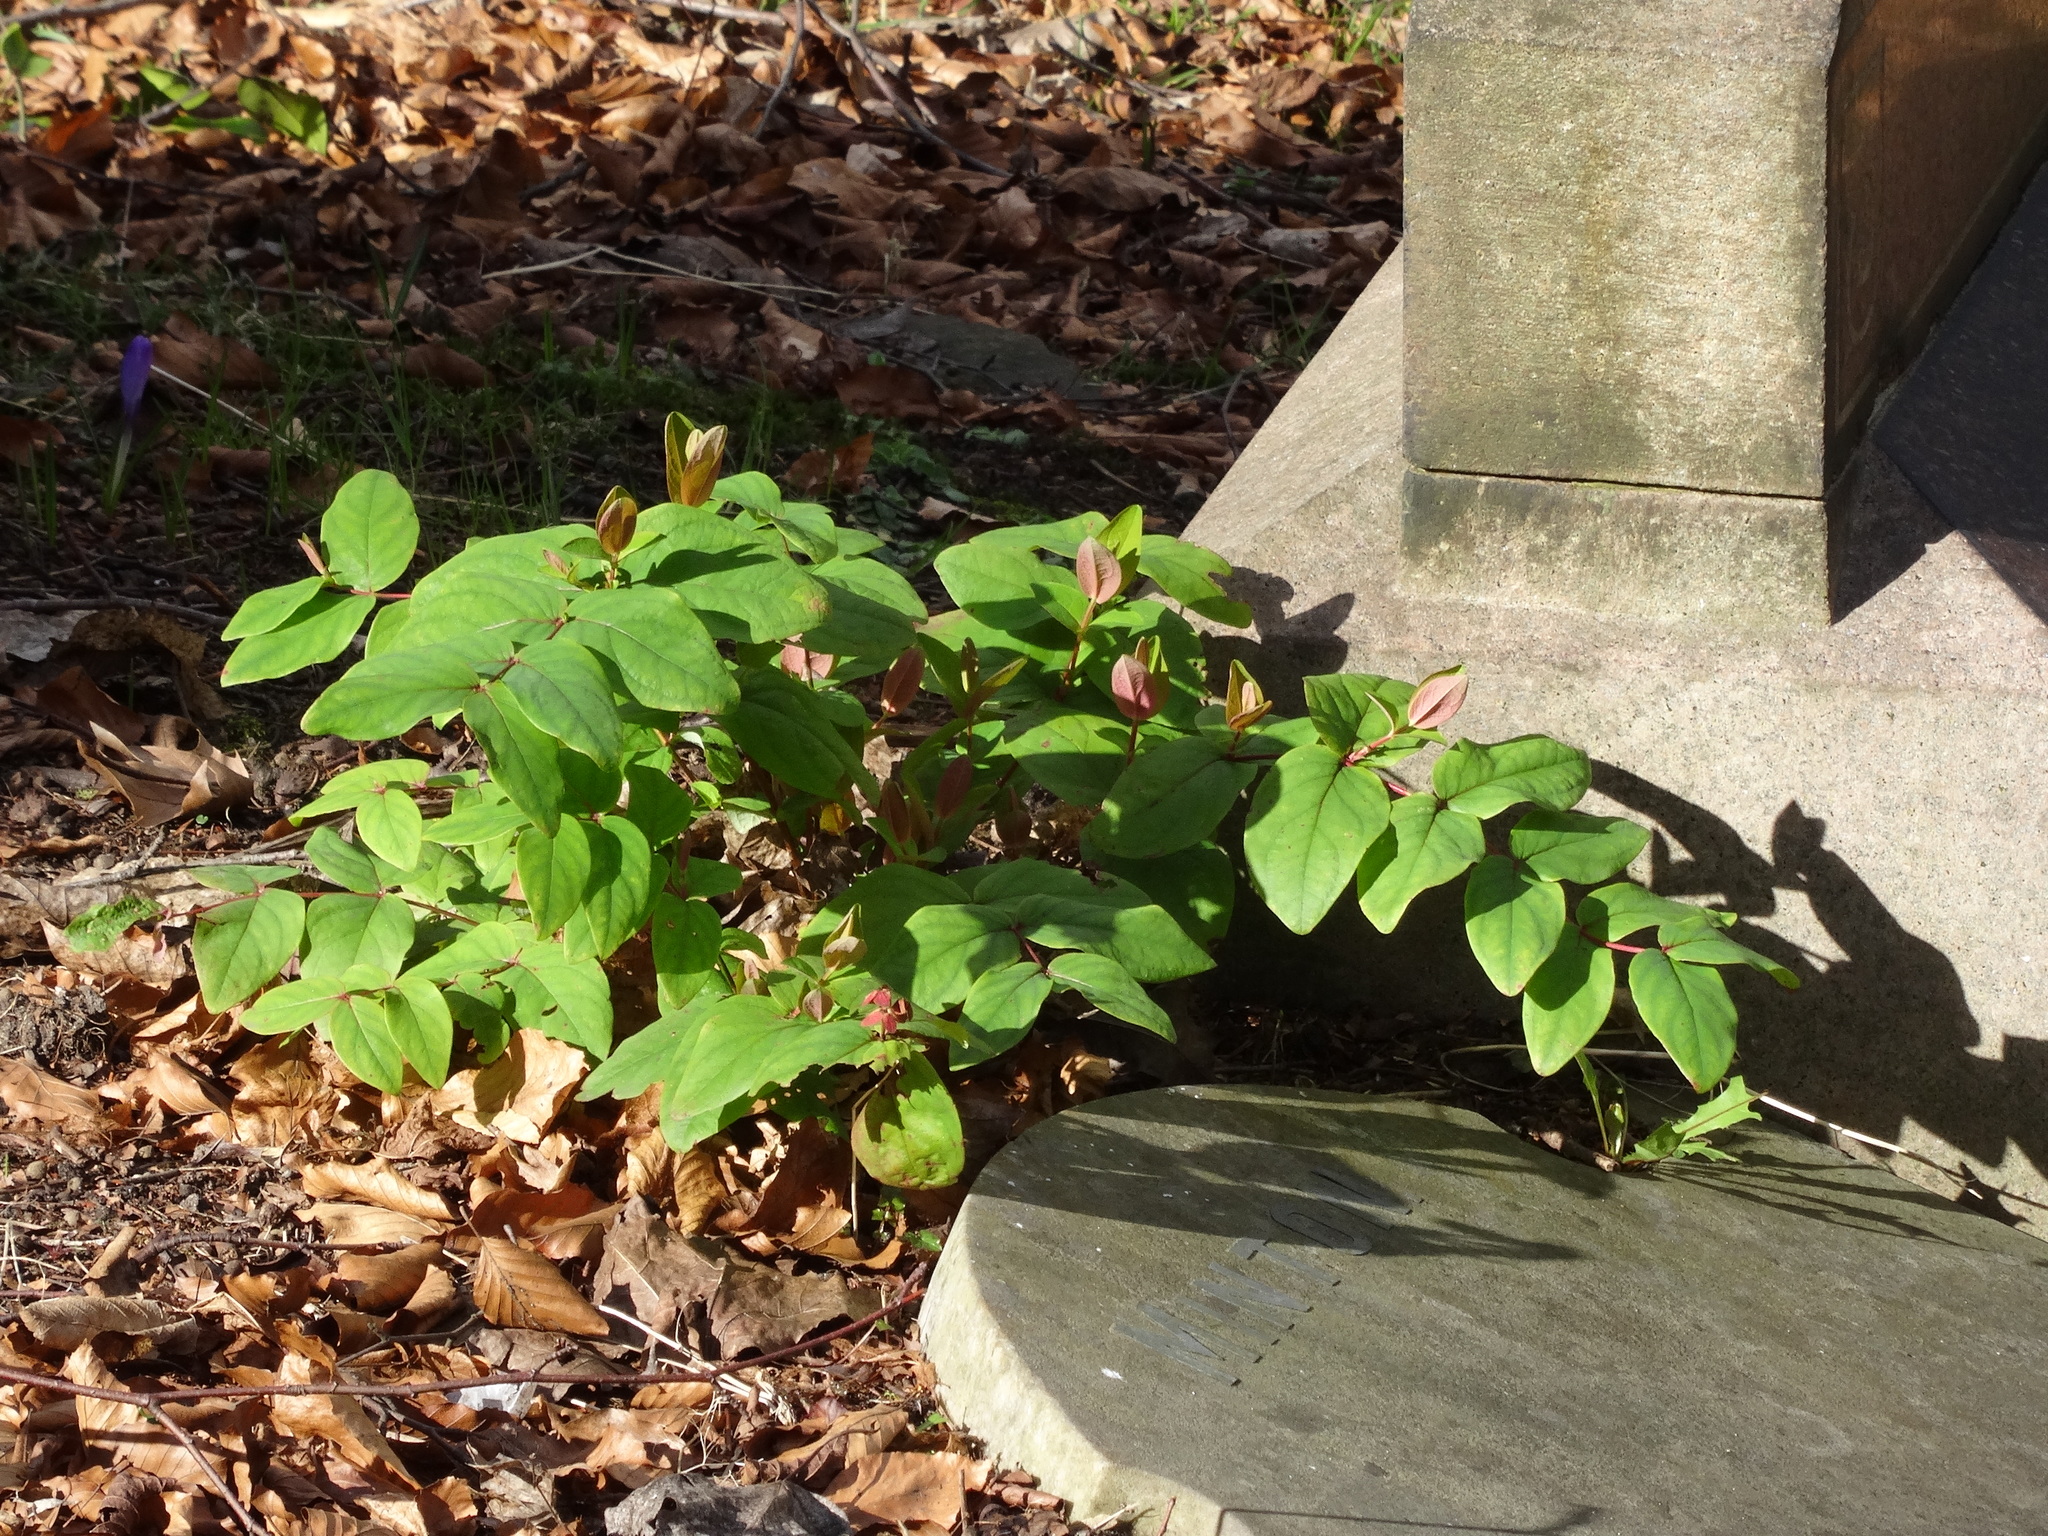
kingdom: Plantae
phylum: Tracheophyta
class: Magnoliopsida
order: Malpighiales
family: Hypericaceae
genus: Hypericum
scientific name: Hypericum androsaemum
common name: Sweet-amber
